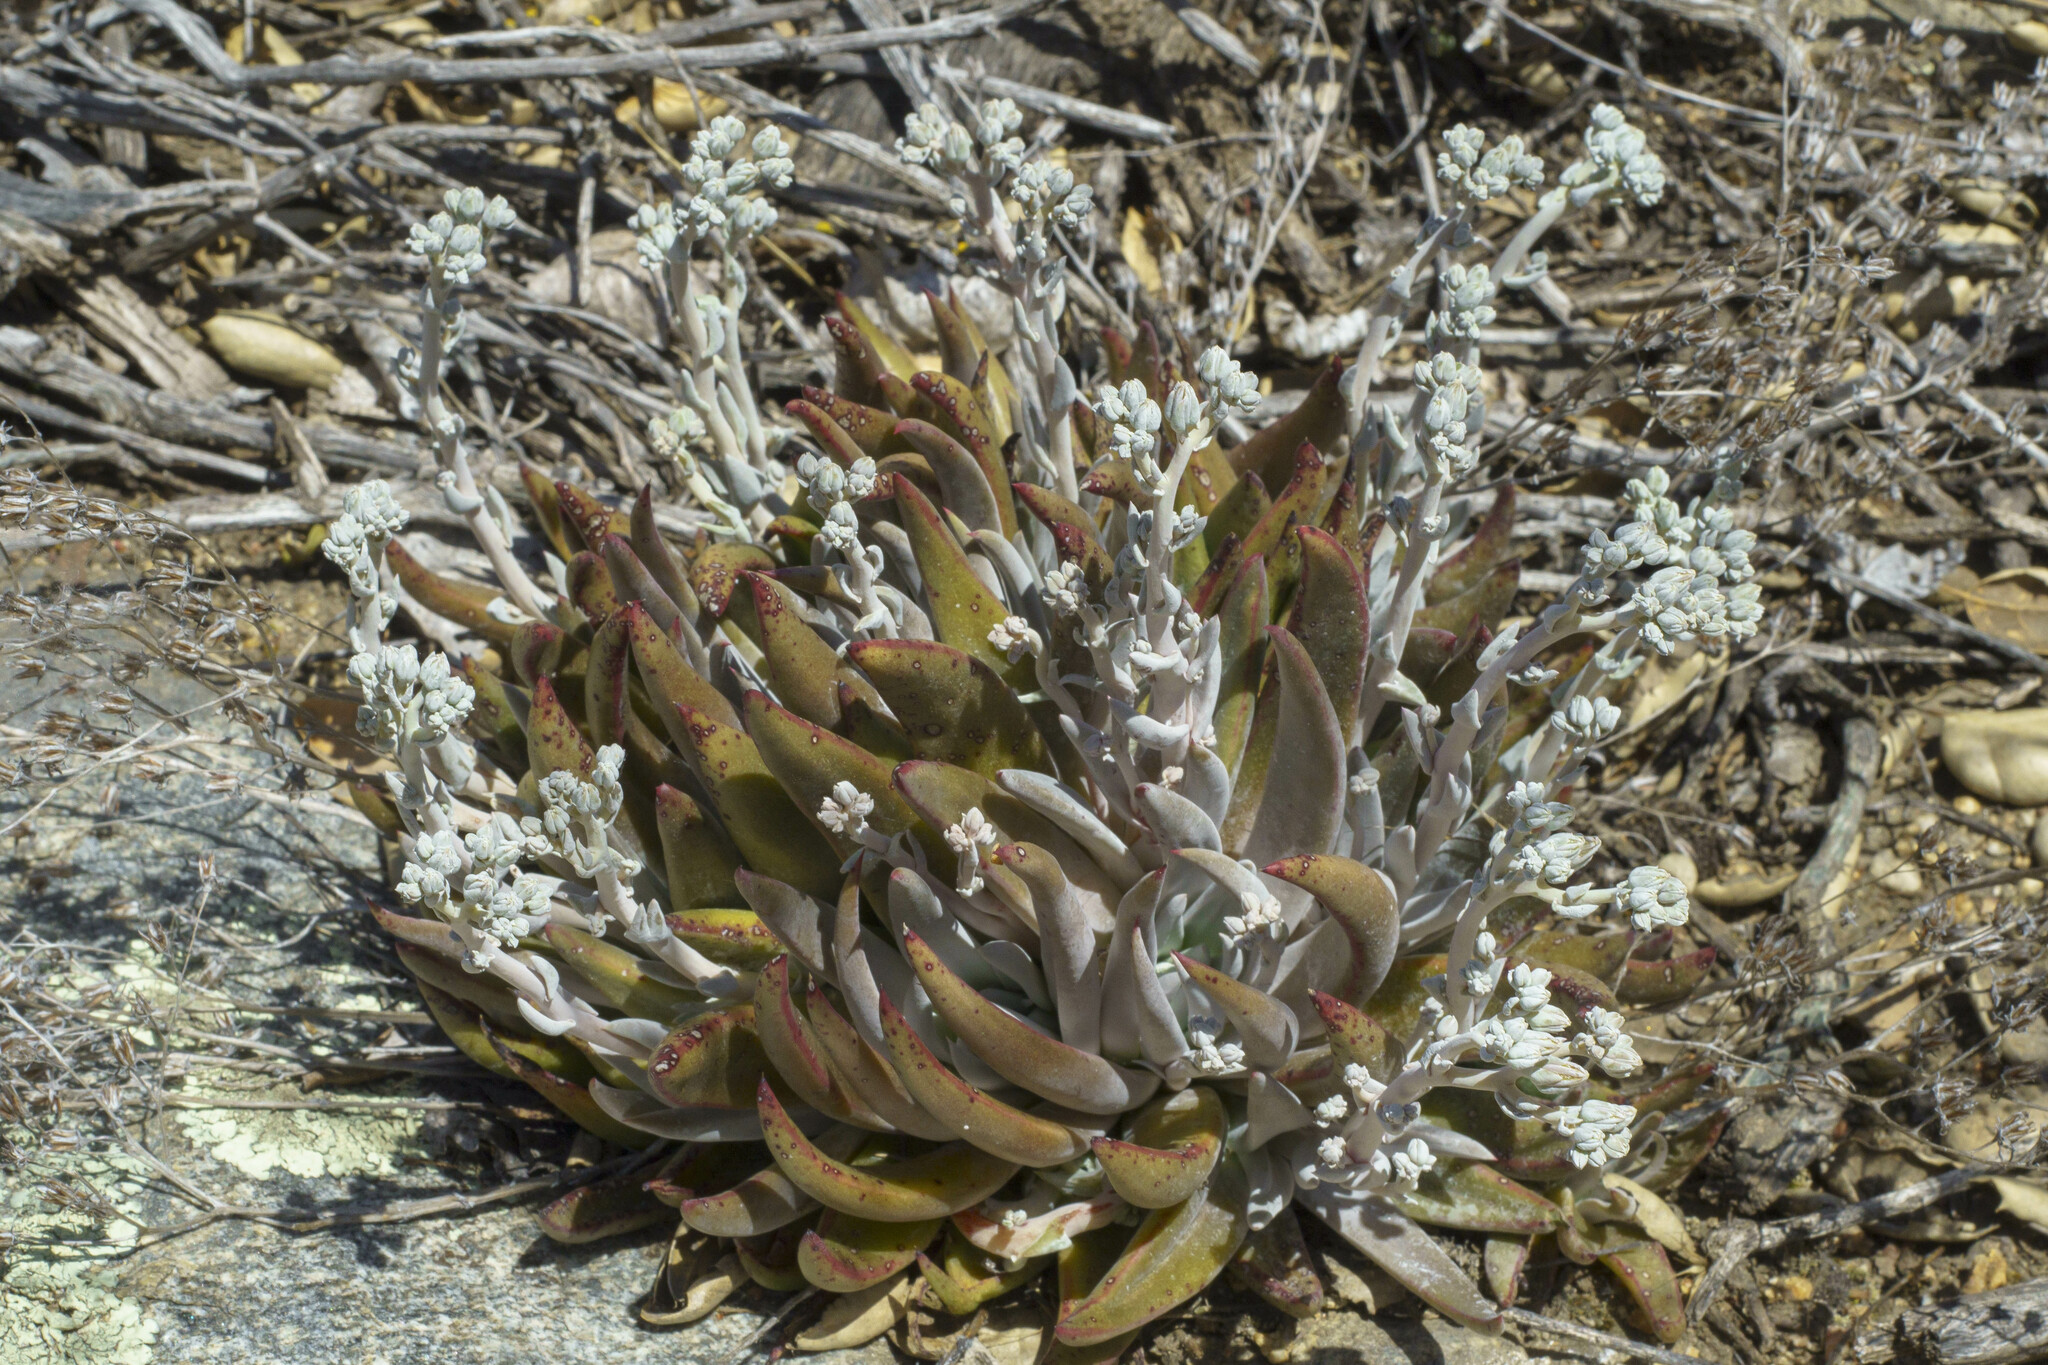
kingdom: Plantae
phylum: Tracheophyta
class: Magnoliopsida
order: Saxifragales
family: Crassulaceae
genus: Dudleya
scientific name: Dudleya abramsii
